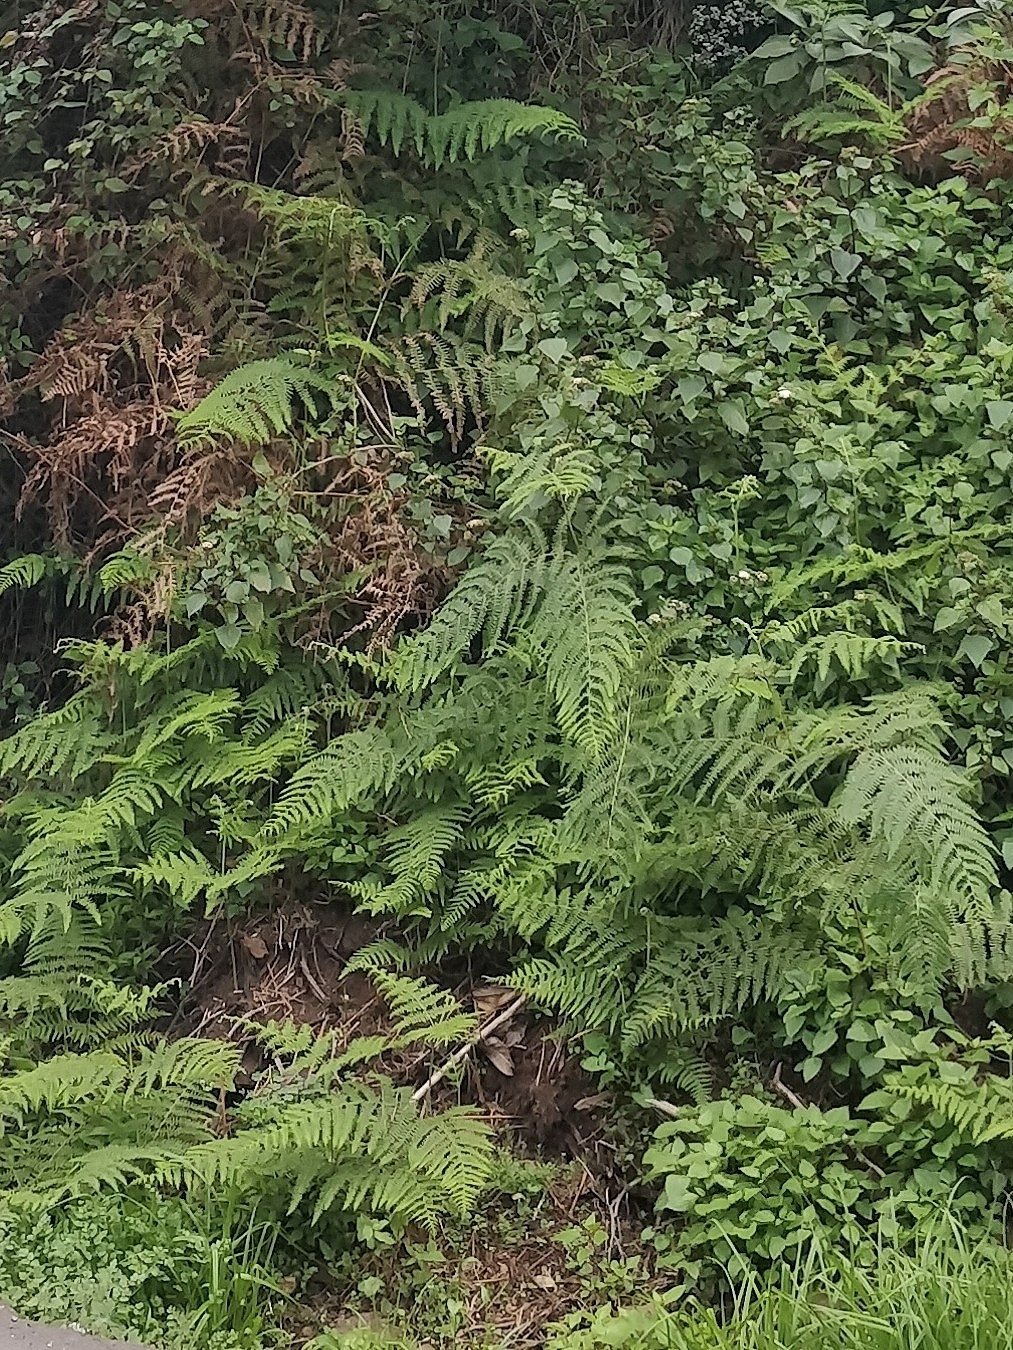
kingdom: Plantae
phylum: Tracheophyta
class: Polypodiopsida
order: Polypodiales
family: Dennstaedtiaceae
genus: Pteridium
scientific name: Pteridium aquilinum
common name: Bracken
